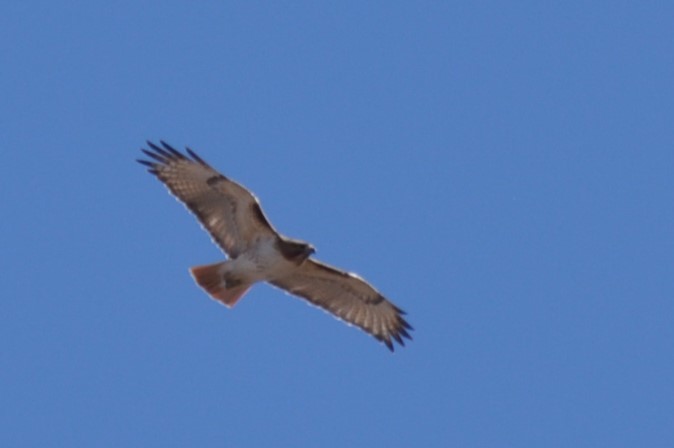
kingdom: Animalia
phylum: Chordata
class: Aves
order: Accipitriformes
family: Accipitridae
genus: Buteo
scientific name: Buteo jamaicensis
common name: Red-tailed hawk
